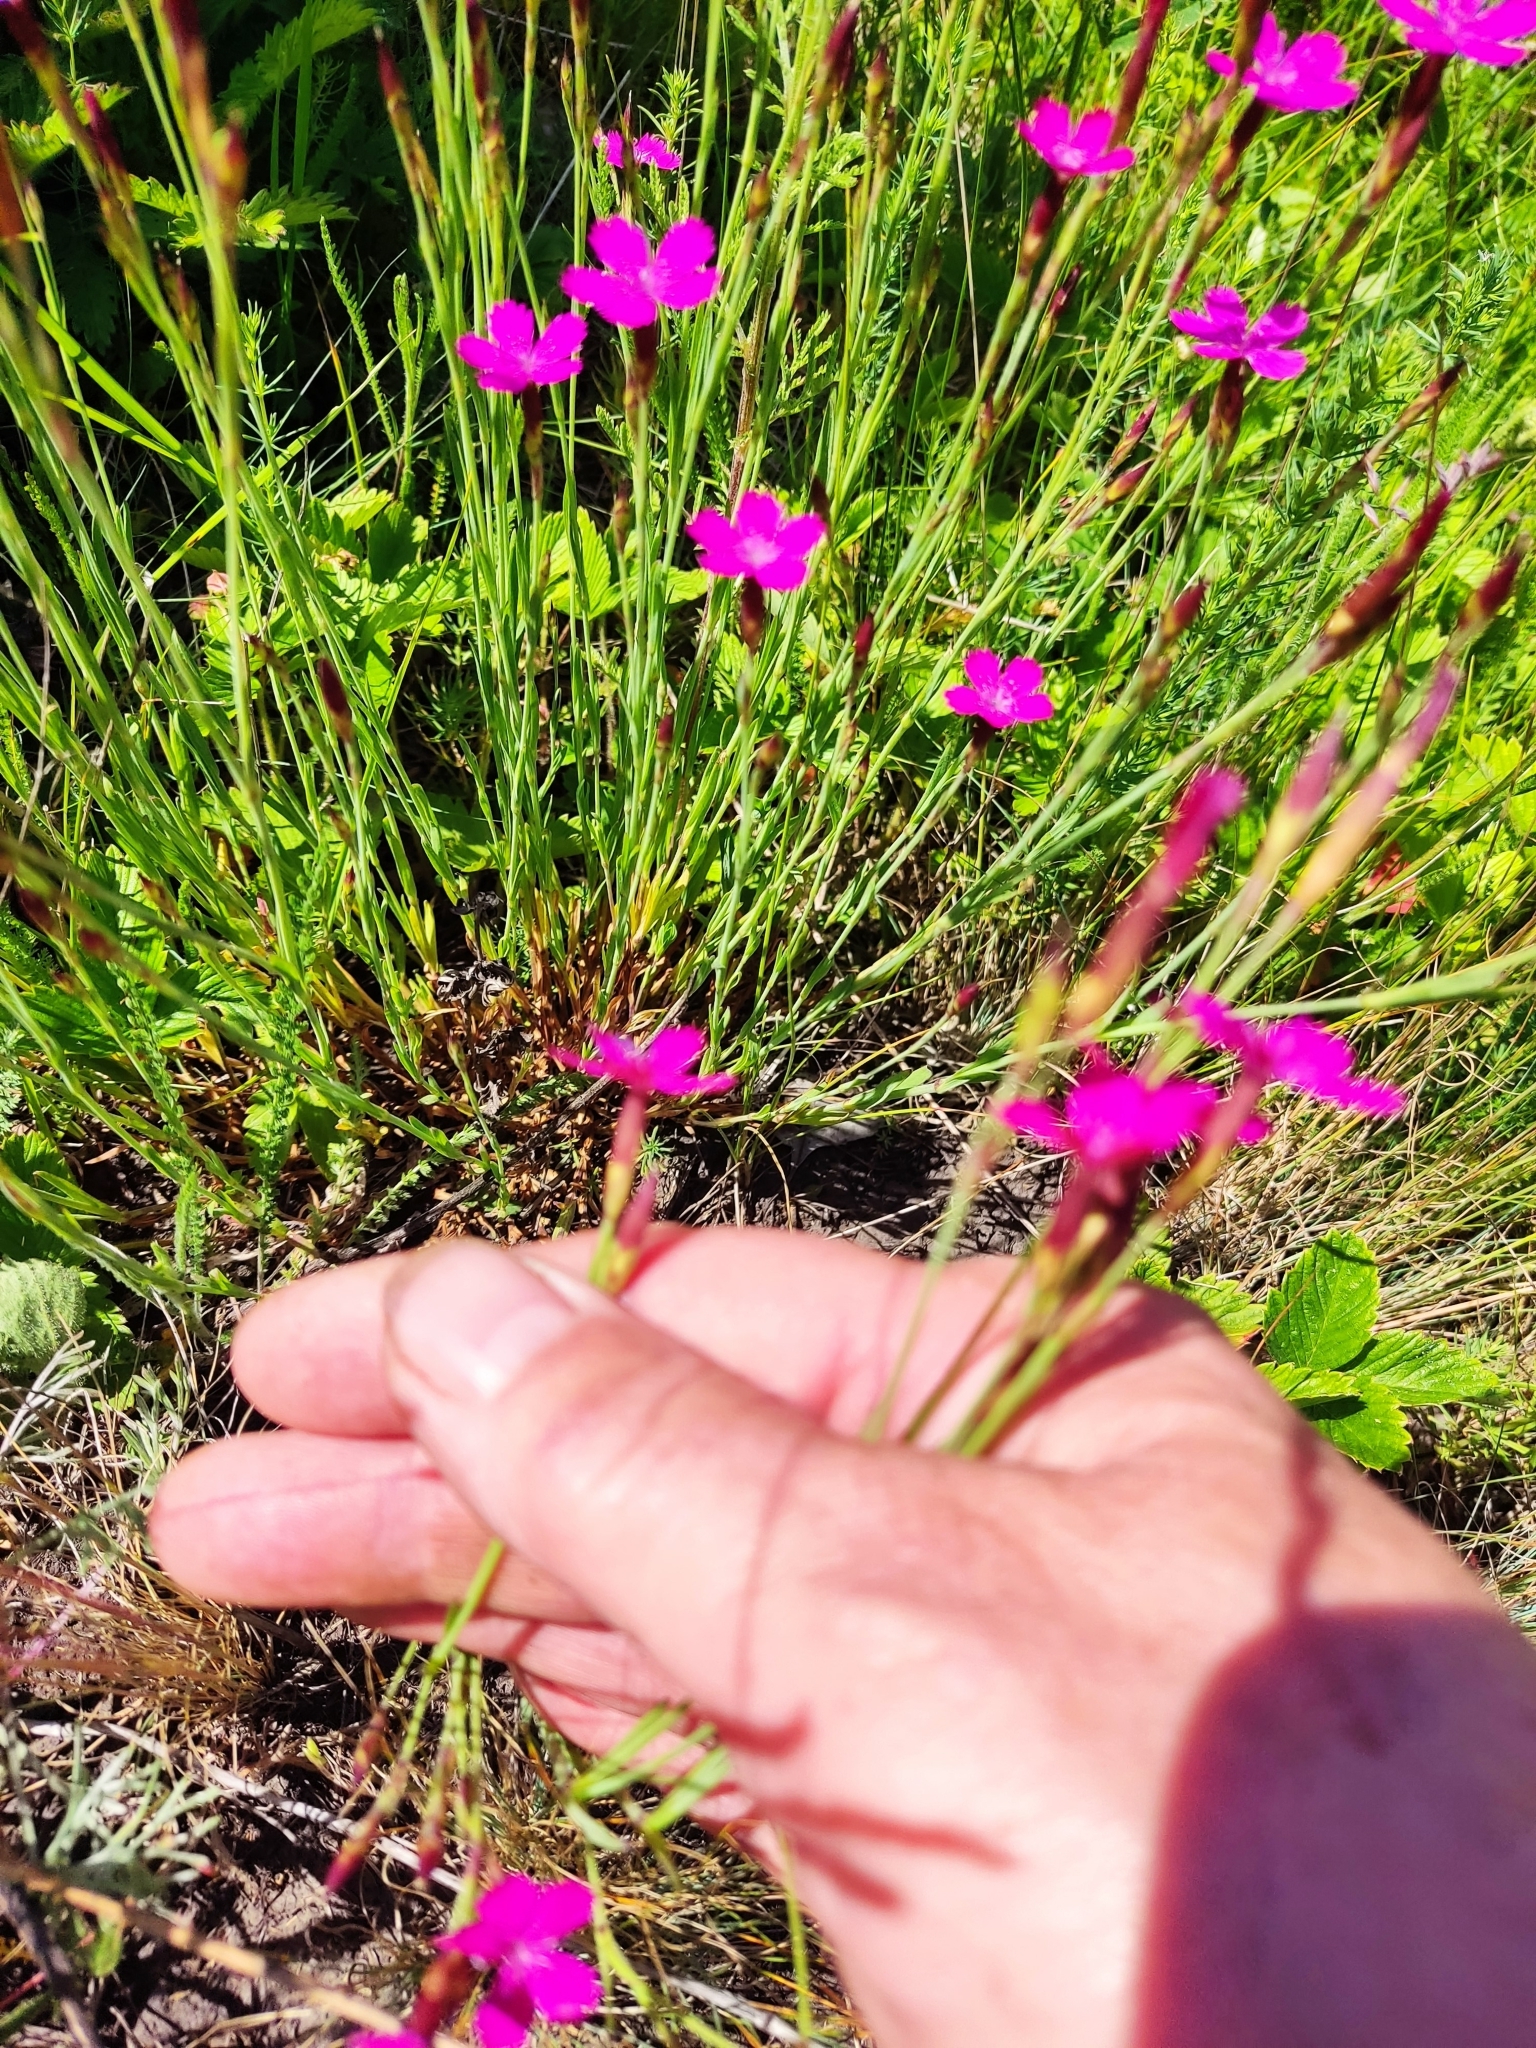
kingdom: Plantae
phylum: Tracheophyta
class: Magnoliopsida
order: Caryophyllales
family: Caryophyllaceae
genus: Dianthus
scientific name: Dianthus deltoides
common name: Maiden pink
